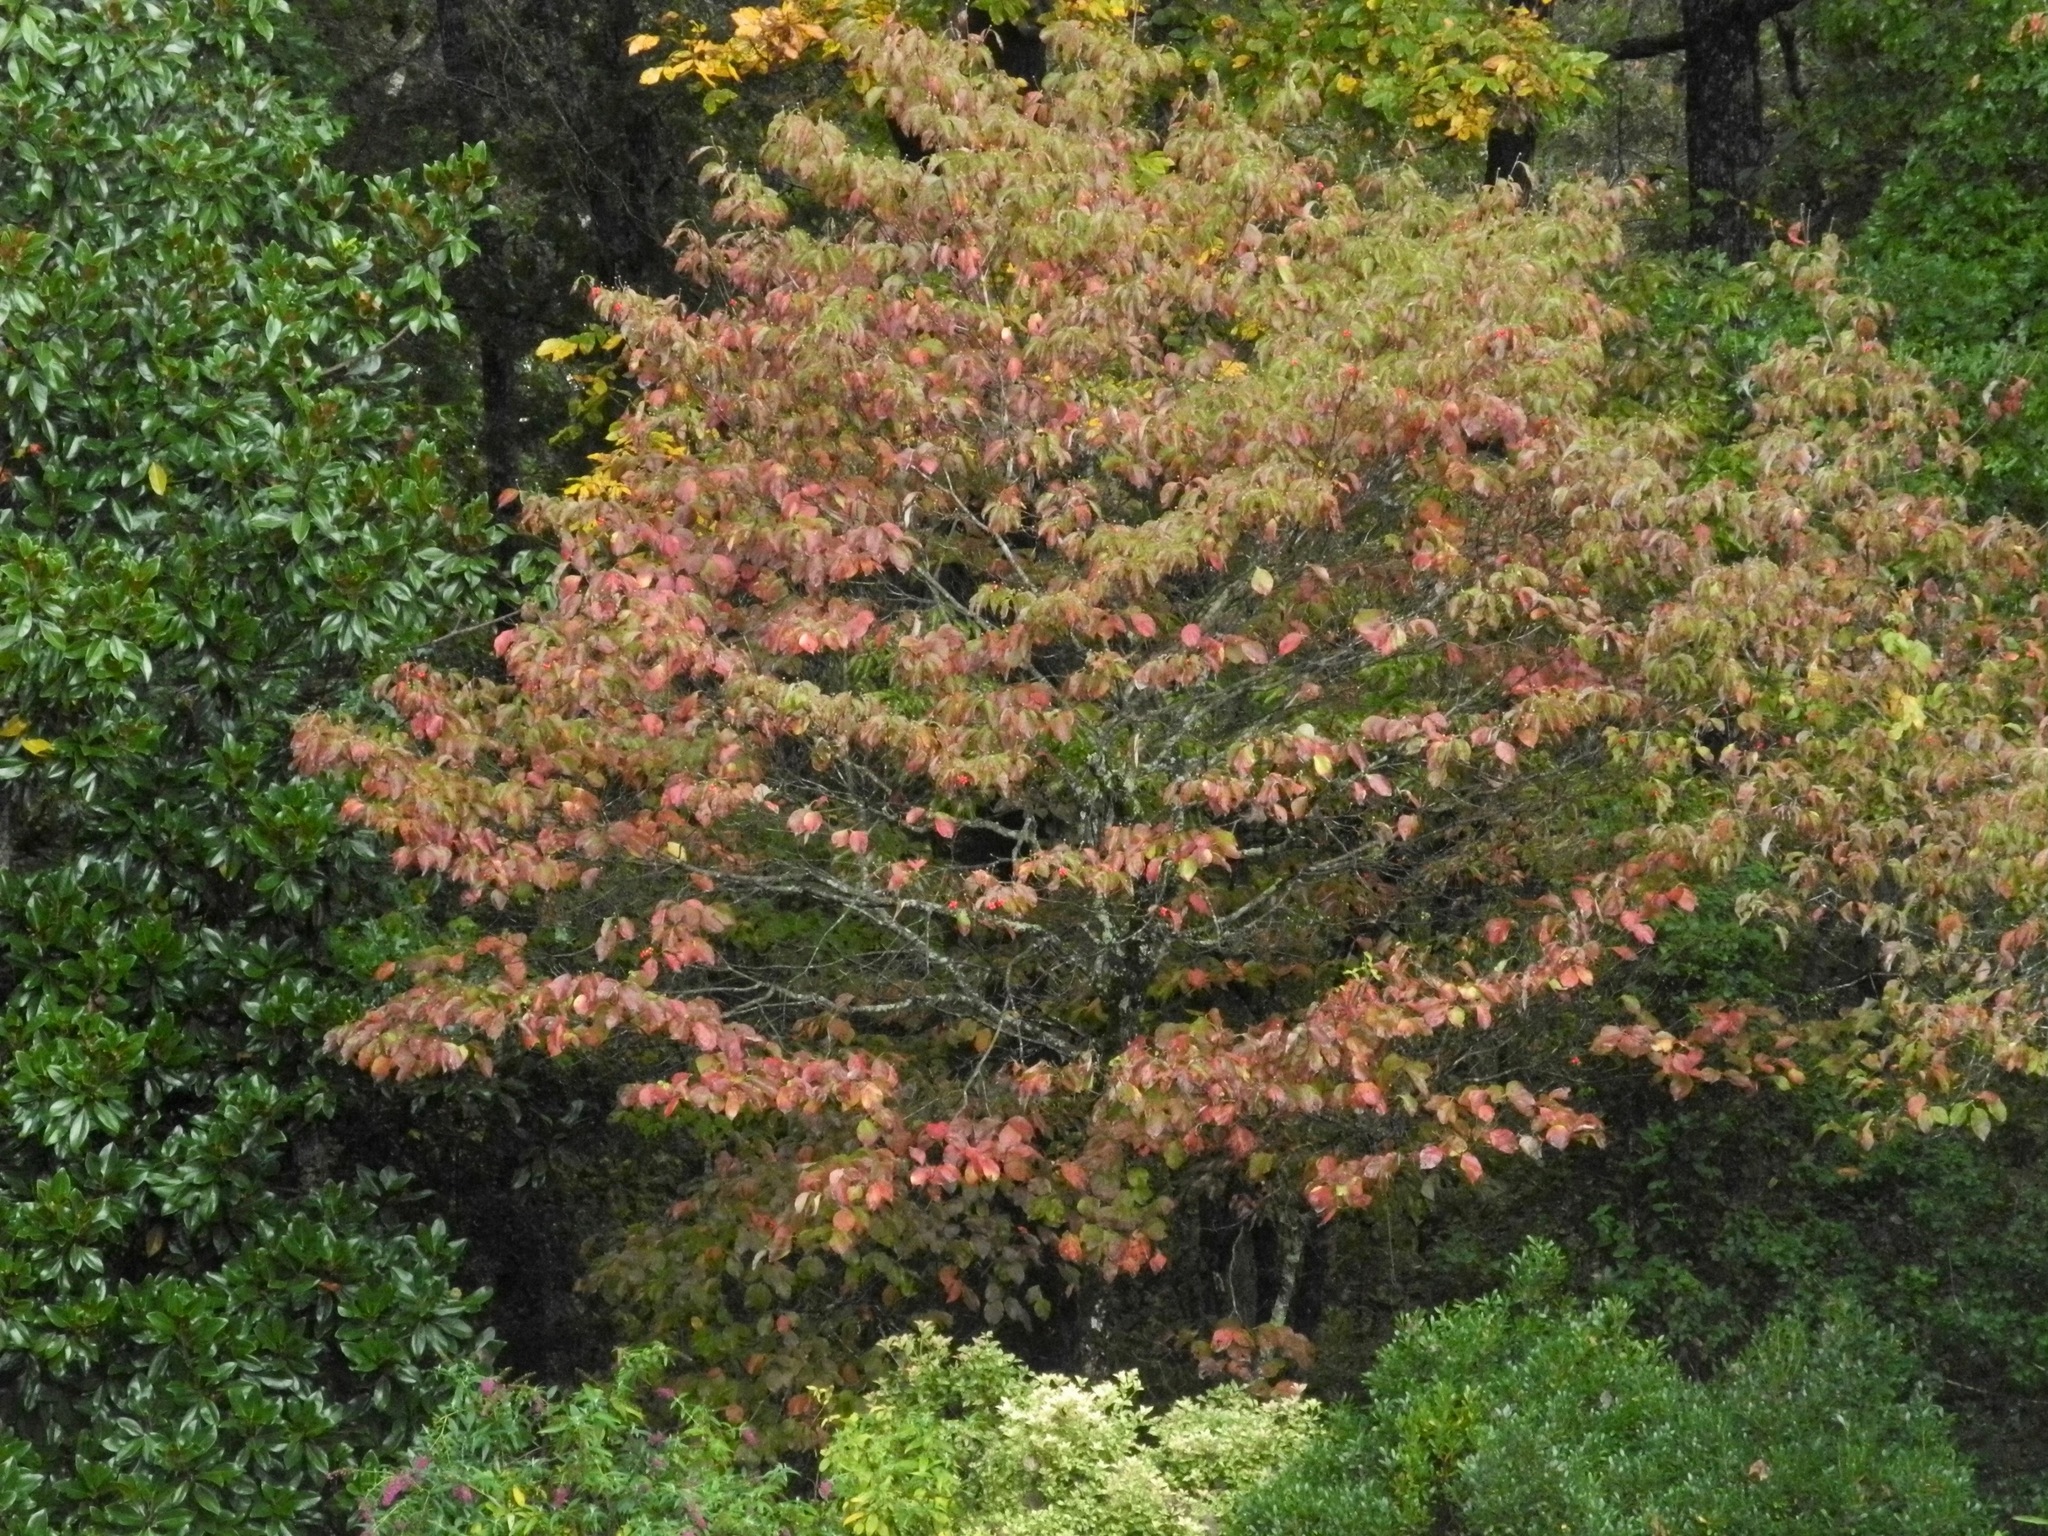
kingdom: Plantae
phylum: Tracheophyta
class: Magnoliopsida
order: Cornales
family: Cornaceae
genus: Cornus
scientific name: Cornus florida
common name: Flowering dogwood
